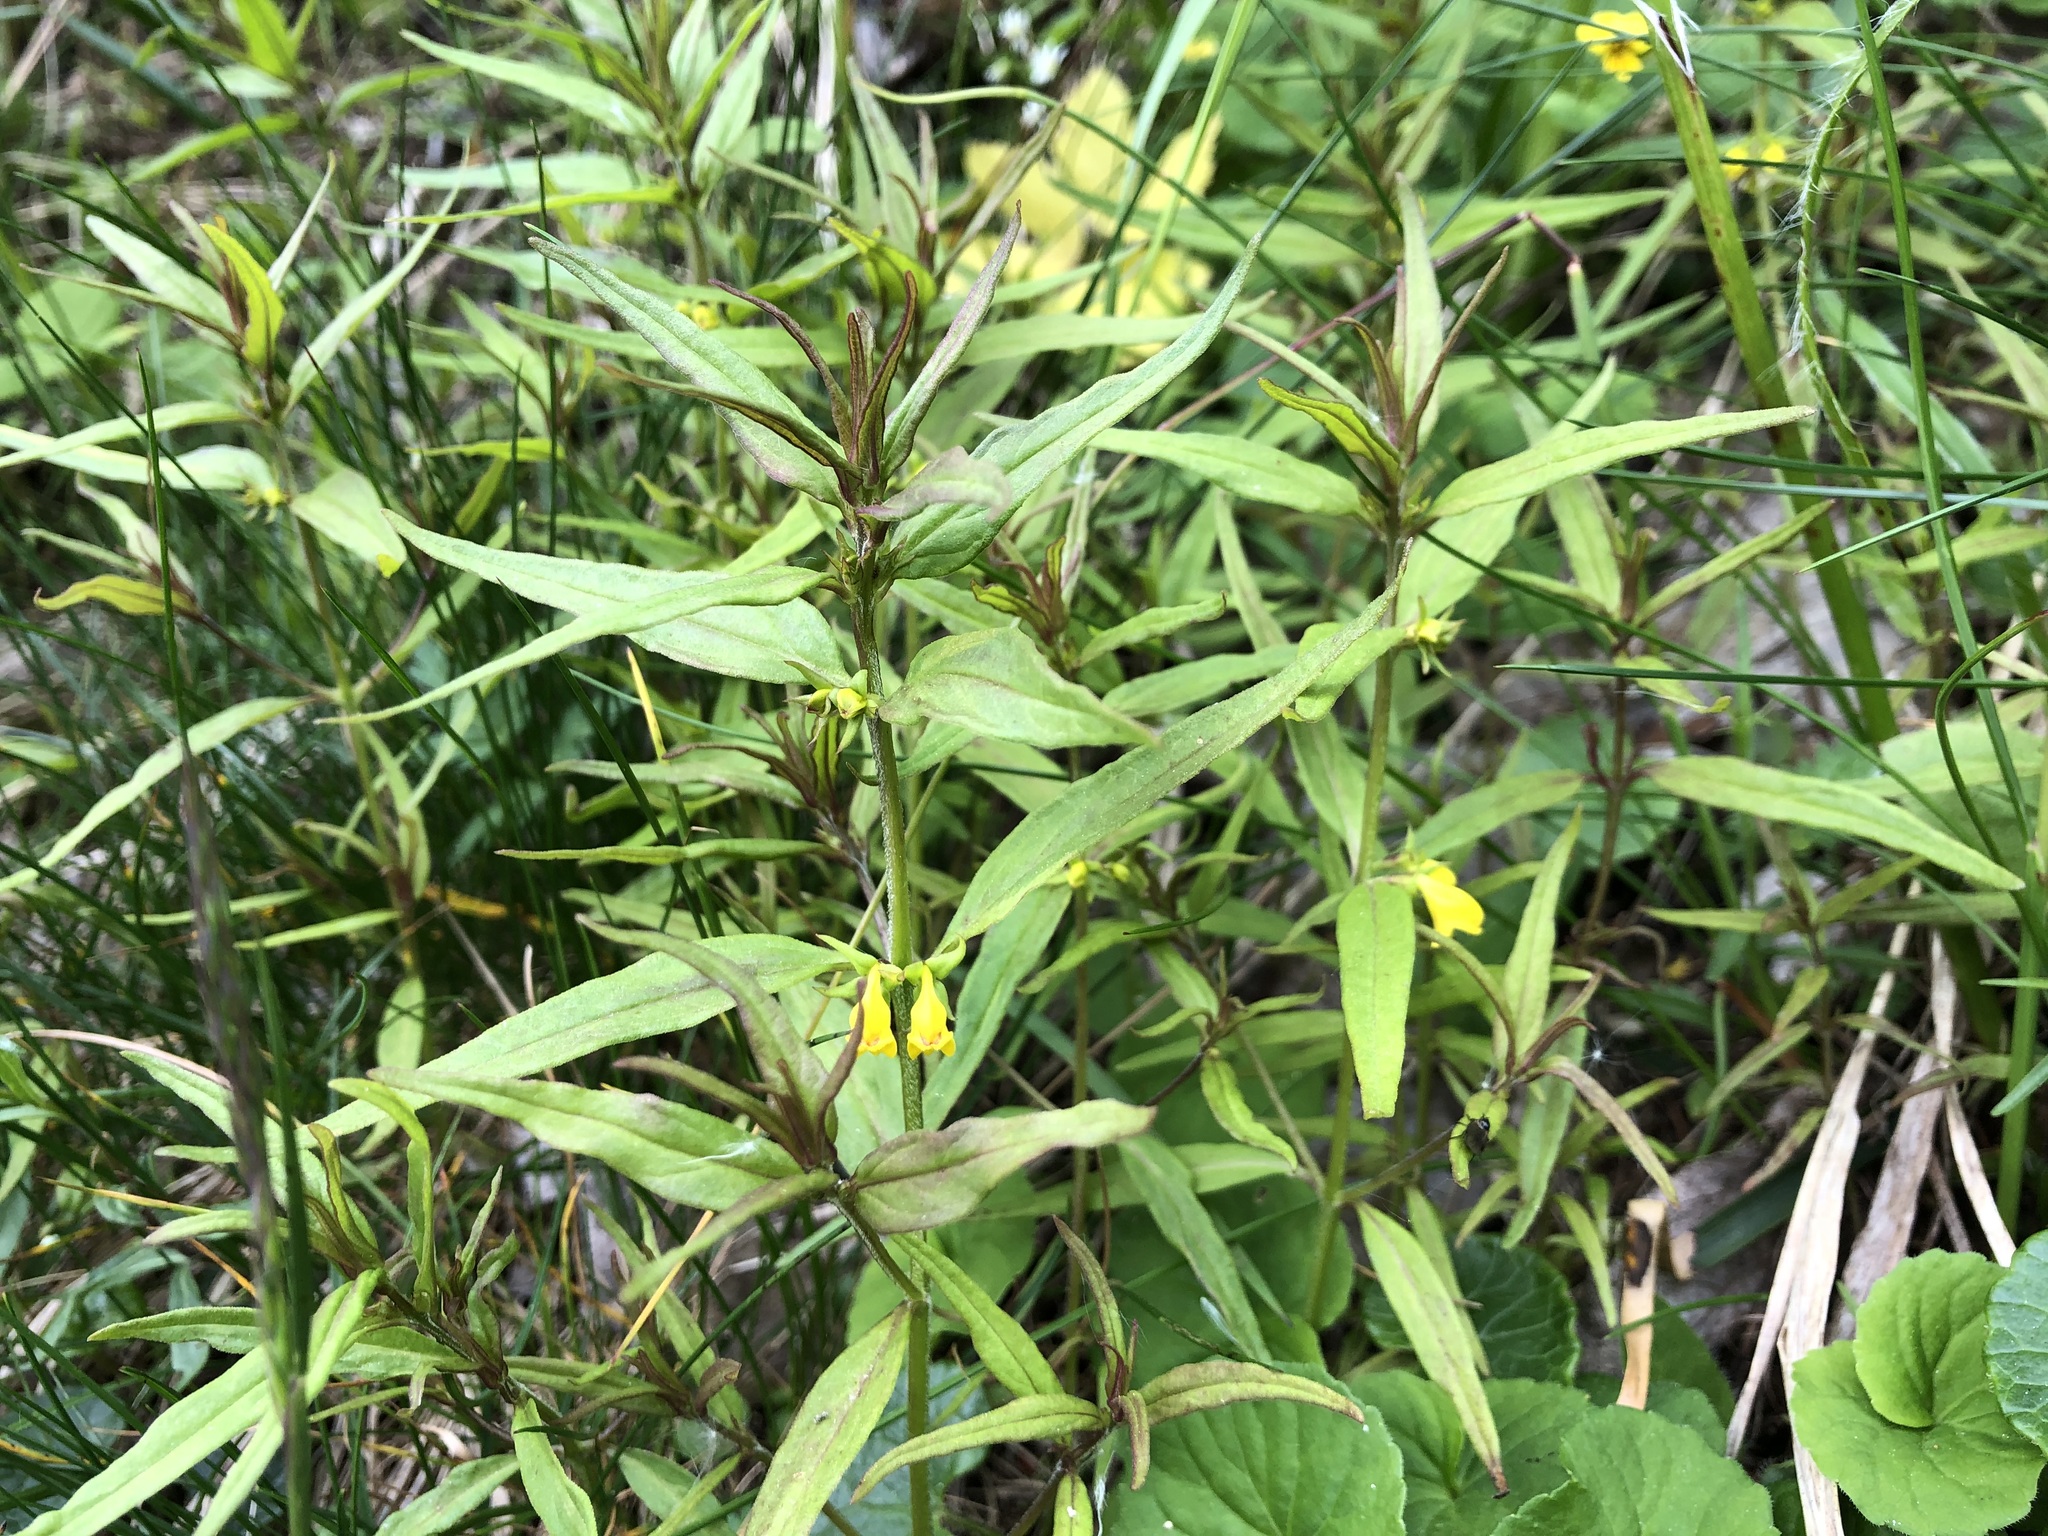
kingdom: Plantae
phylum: Tracheophyta
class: Magnoliopsida
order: Lamiales
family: Orobanchaceae
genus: Melampyrum
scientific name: Melampyrum sylvaticum
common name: Small cow-wheat
